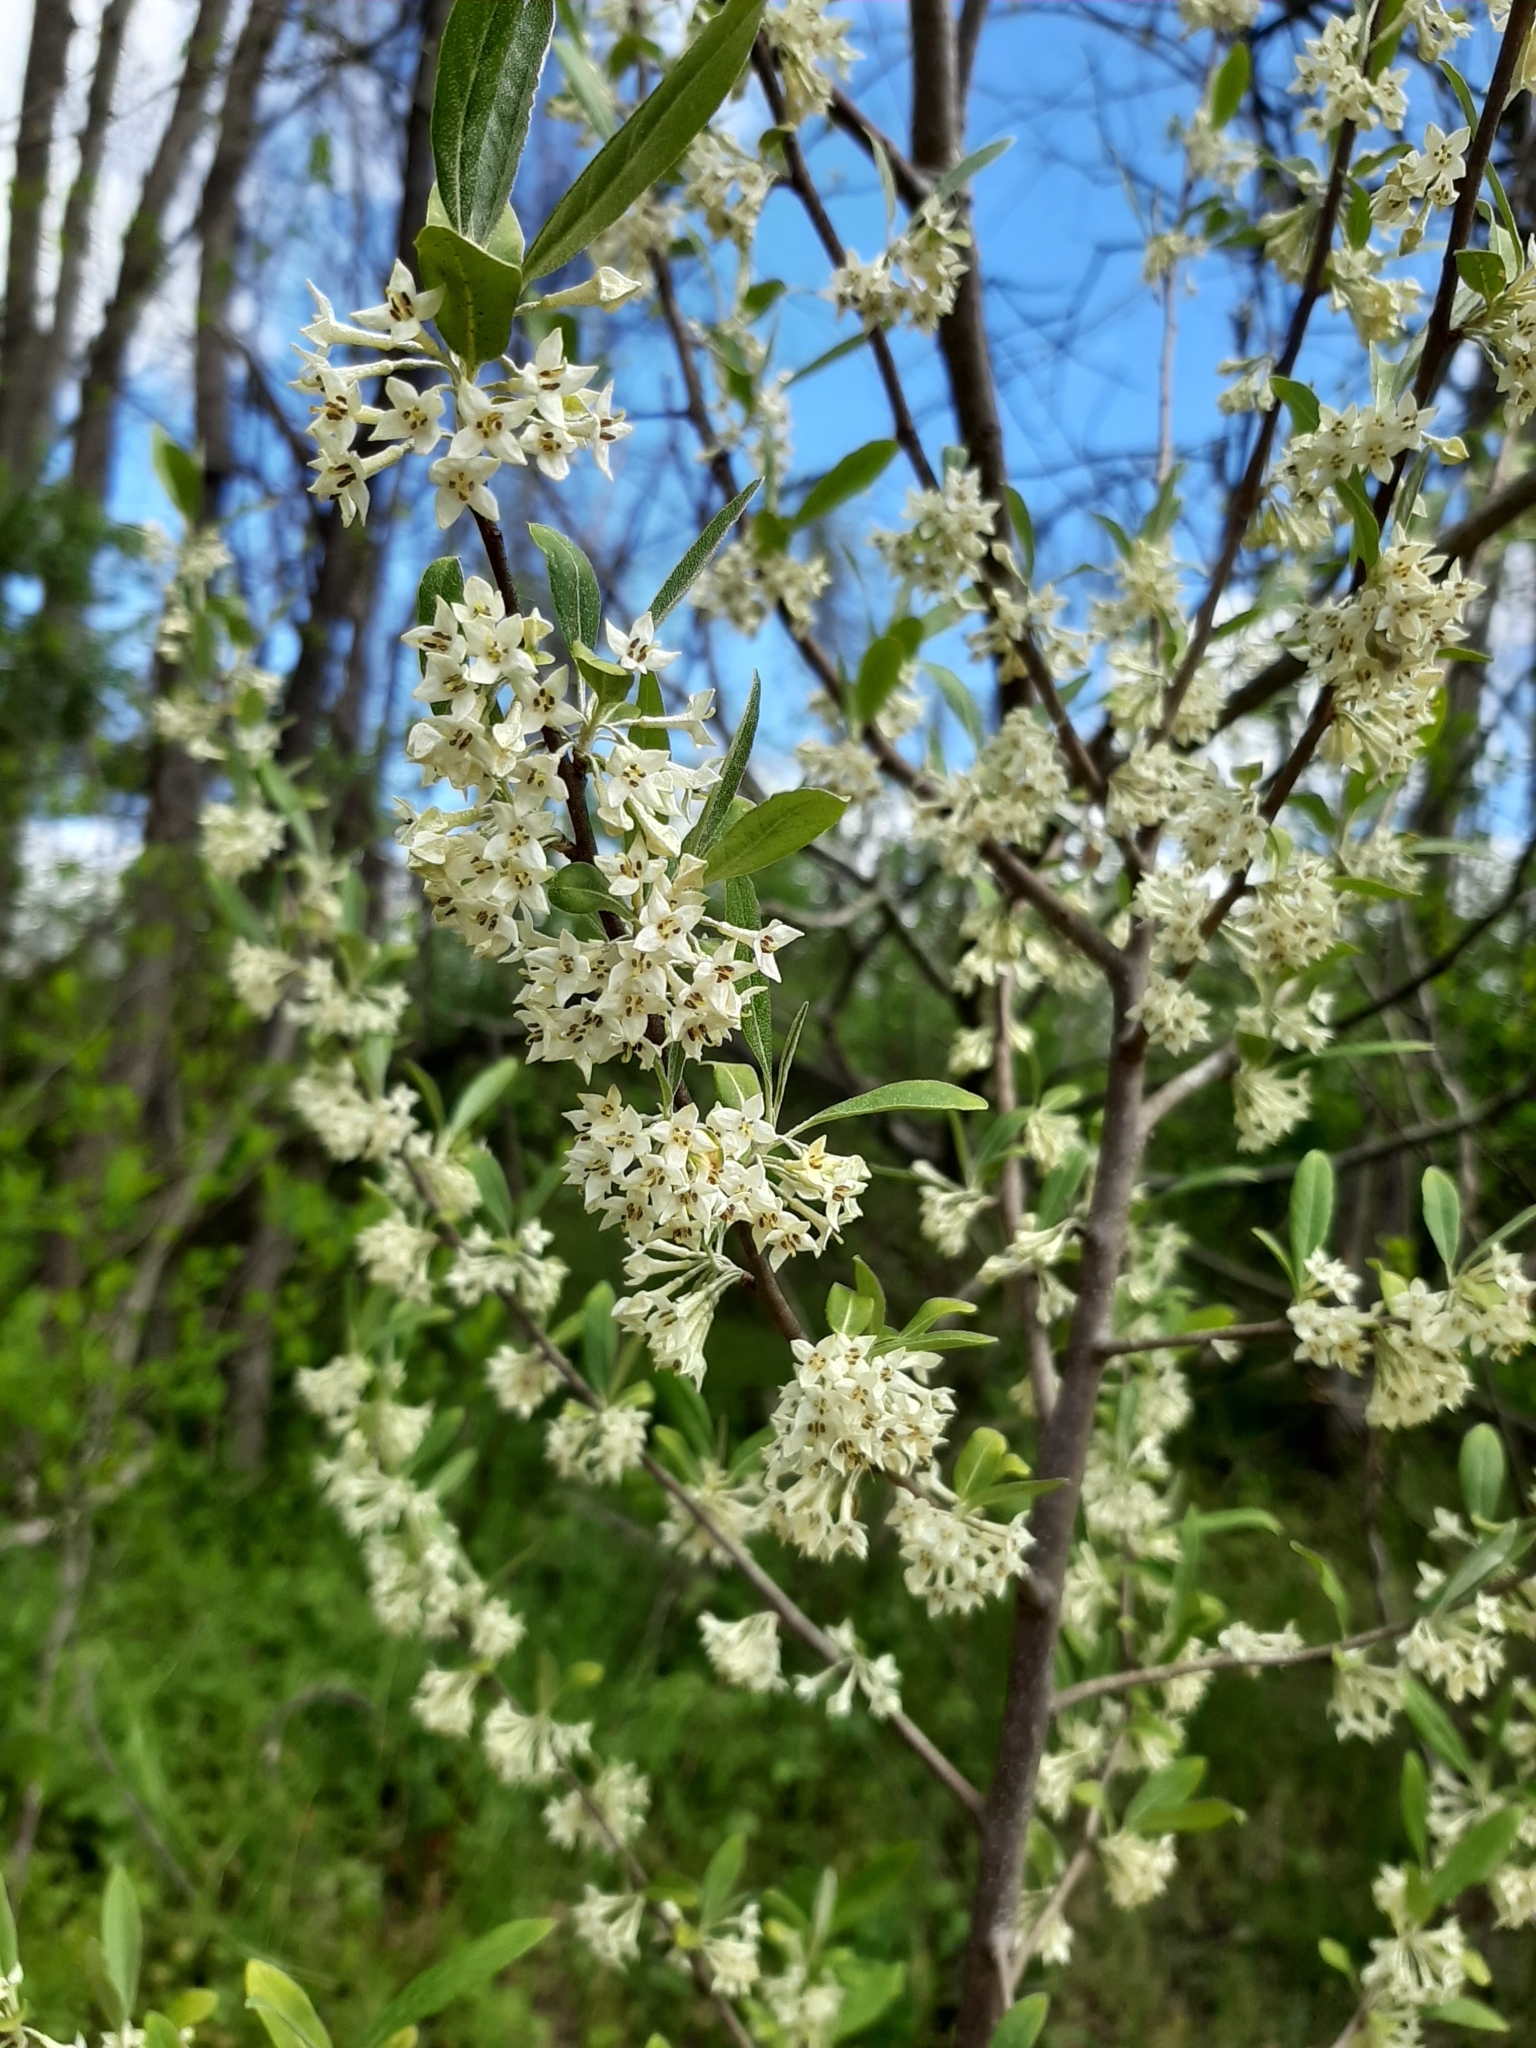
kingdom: Plantae
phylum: Tracheophyta
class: Magnoliopsida
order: Rosales
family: Elaeagnaceae
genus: Elaeagnus
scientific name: Elaeagnus umbellata
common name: Autumn olive
